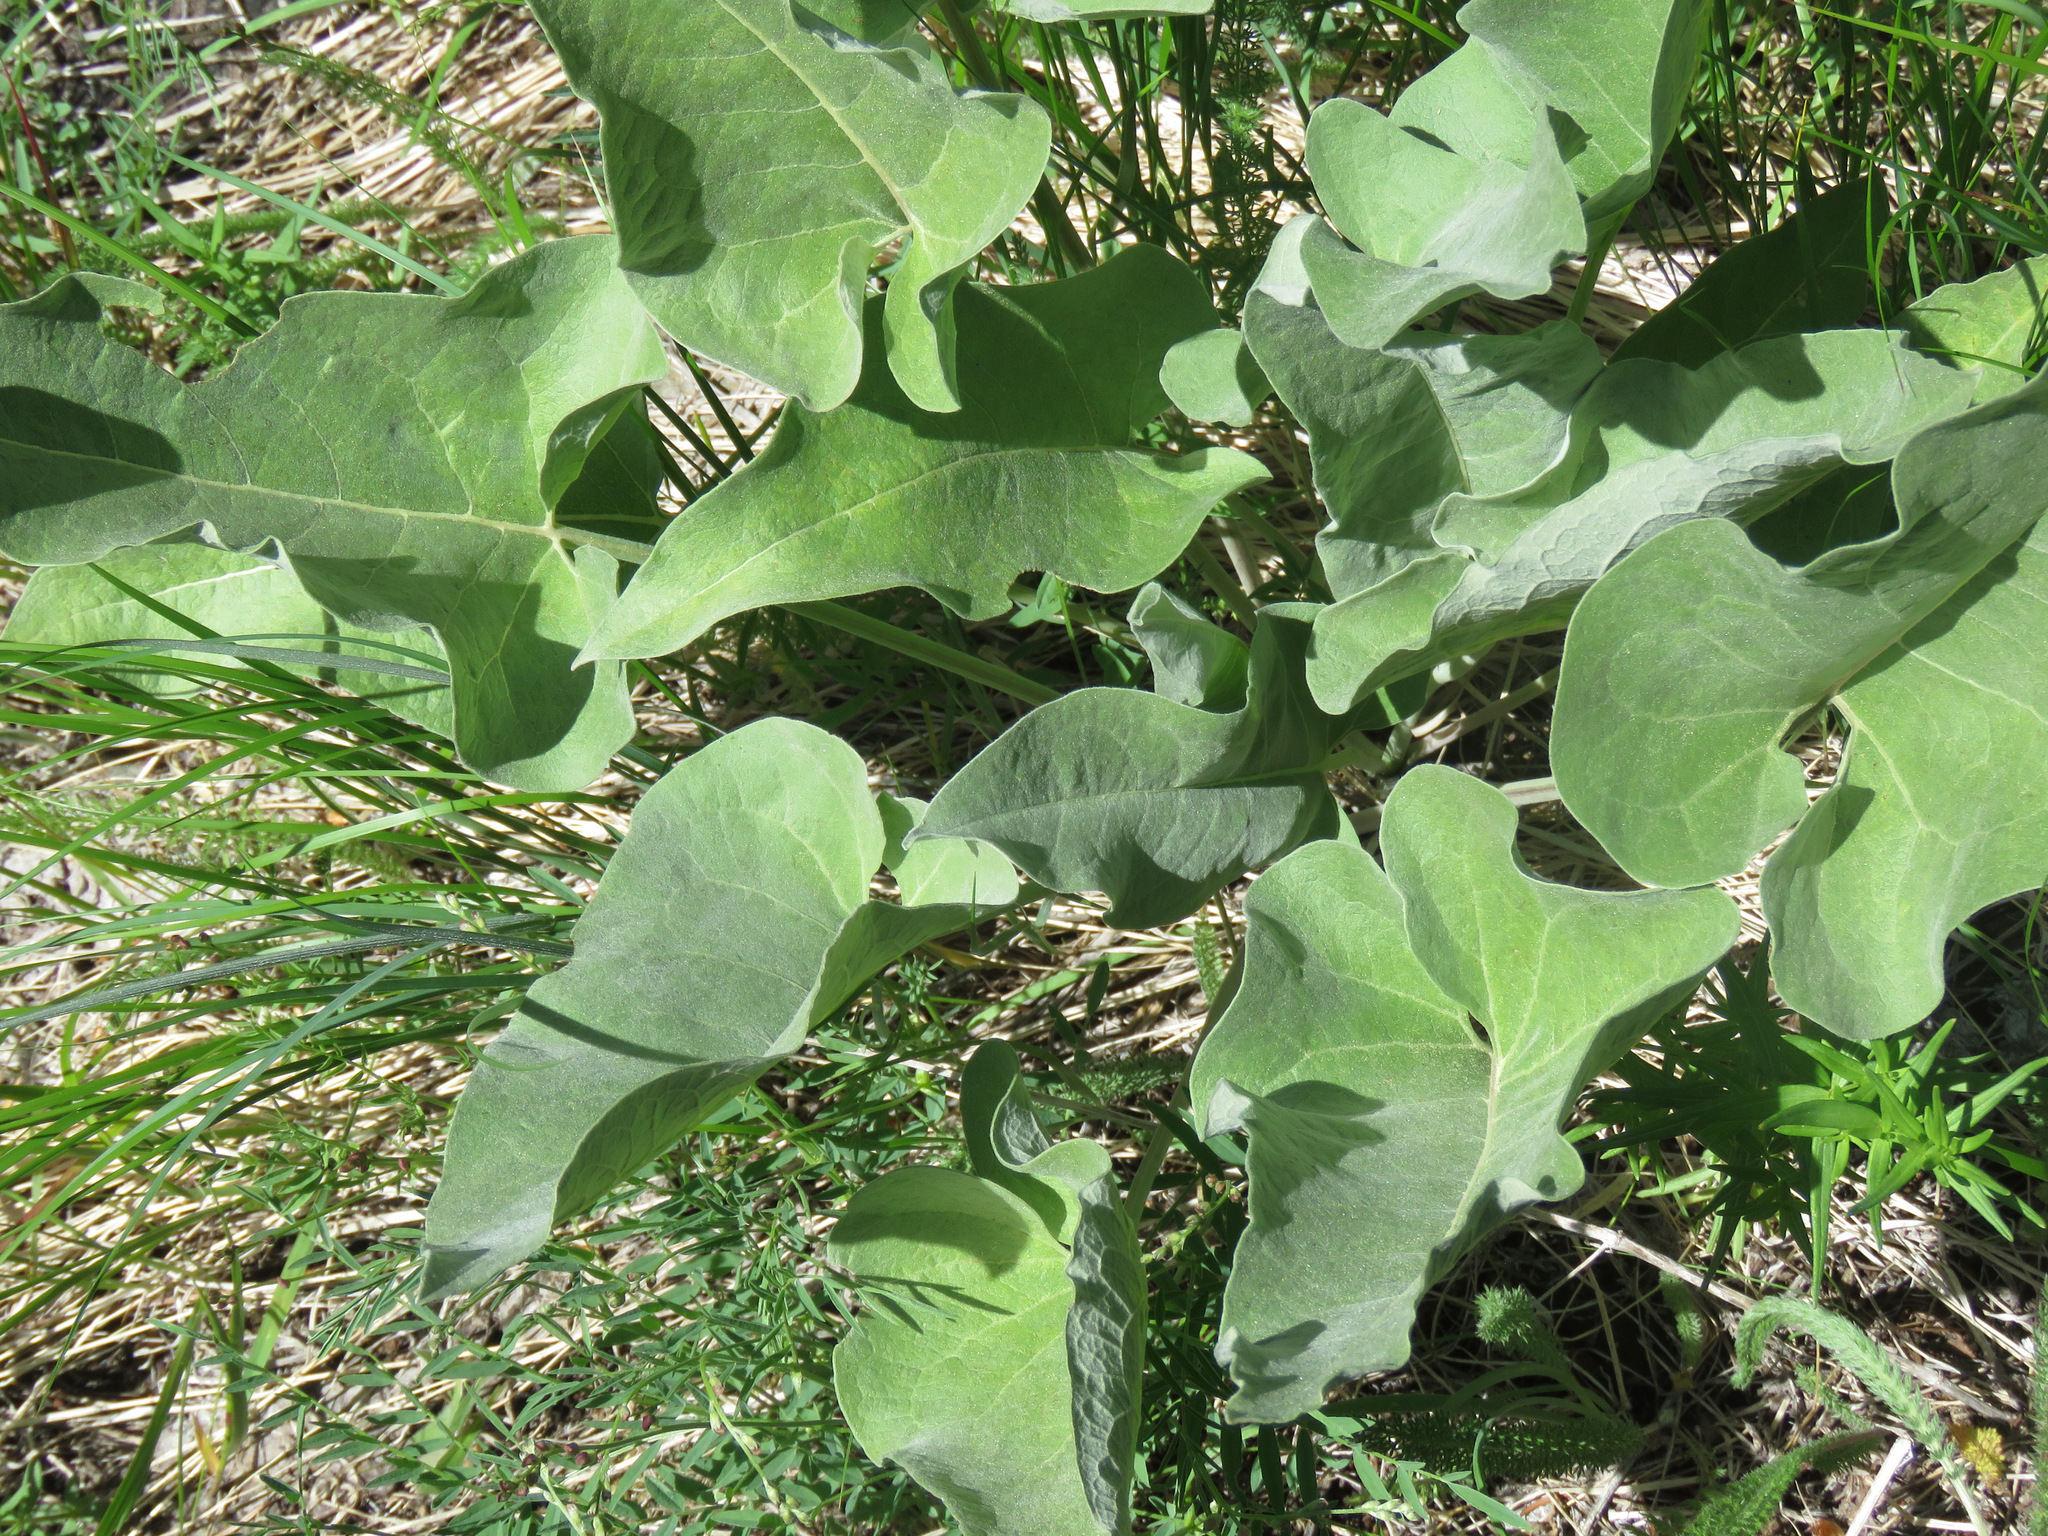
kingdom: Plantae
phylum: Tracheophyta
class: Magnoliopsida
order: Asterales
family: Asteraceae
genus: Wyethia
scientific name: Wyethia sagittata
